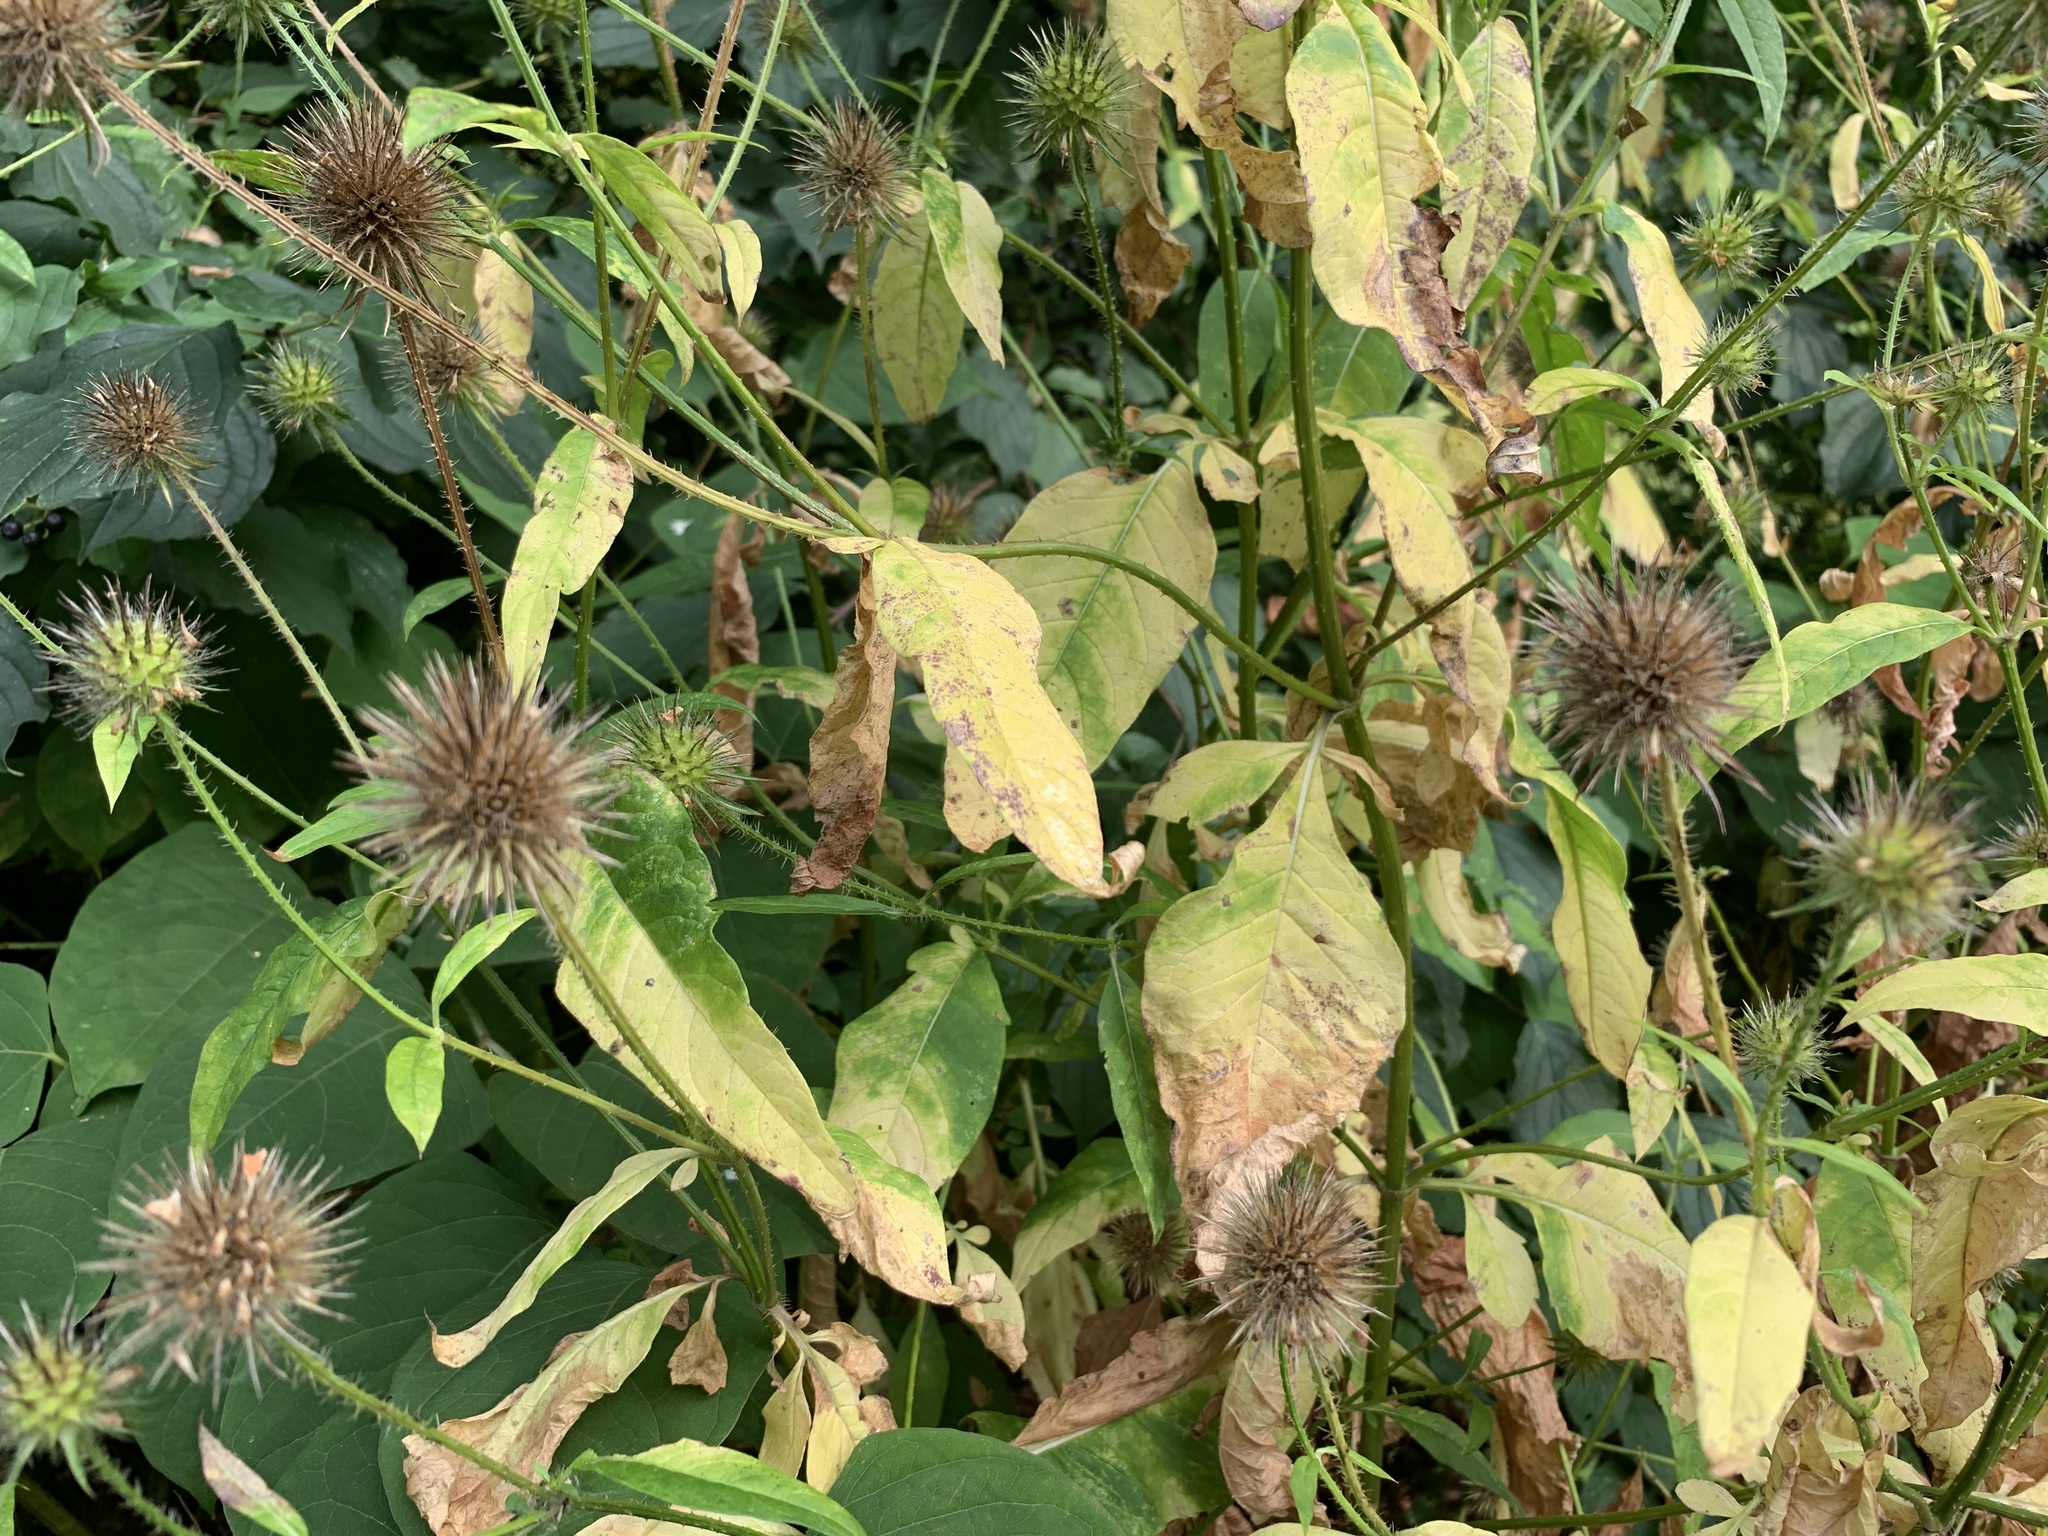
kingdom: Plantae
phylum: Tracheophyta
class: Magnoliopsida
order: Dipsacales
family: Caprifoliaceae
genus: Dipsacus
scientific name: Dipsacus strigosus
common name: Yellow-flowered teasel
